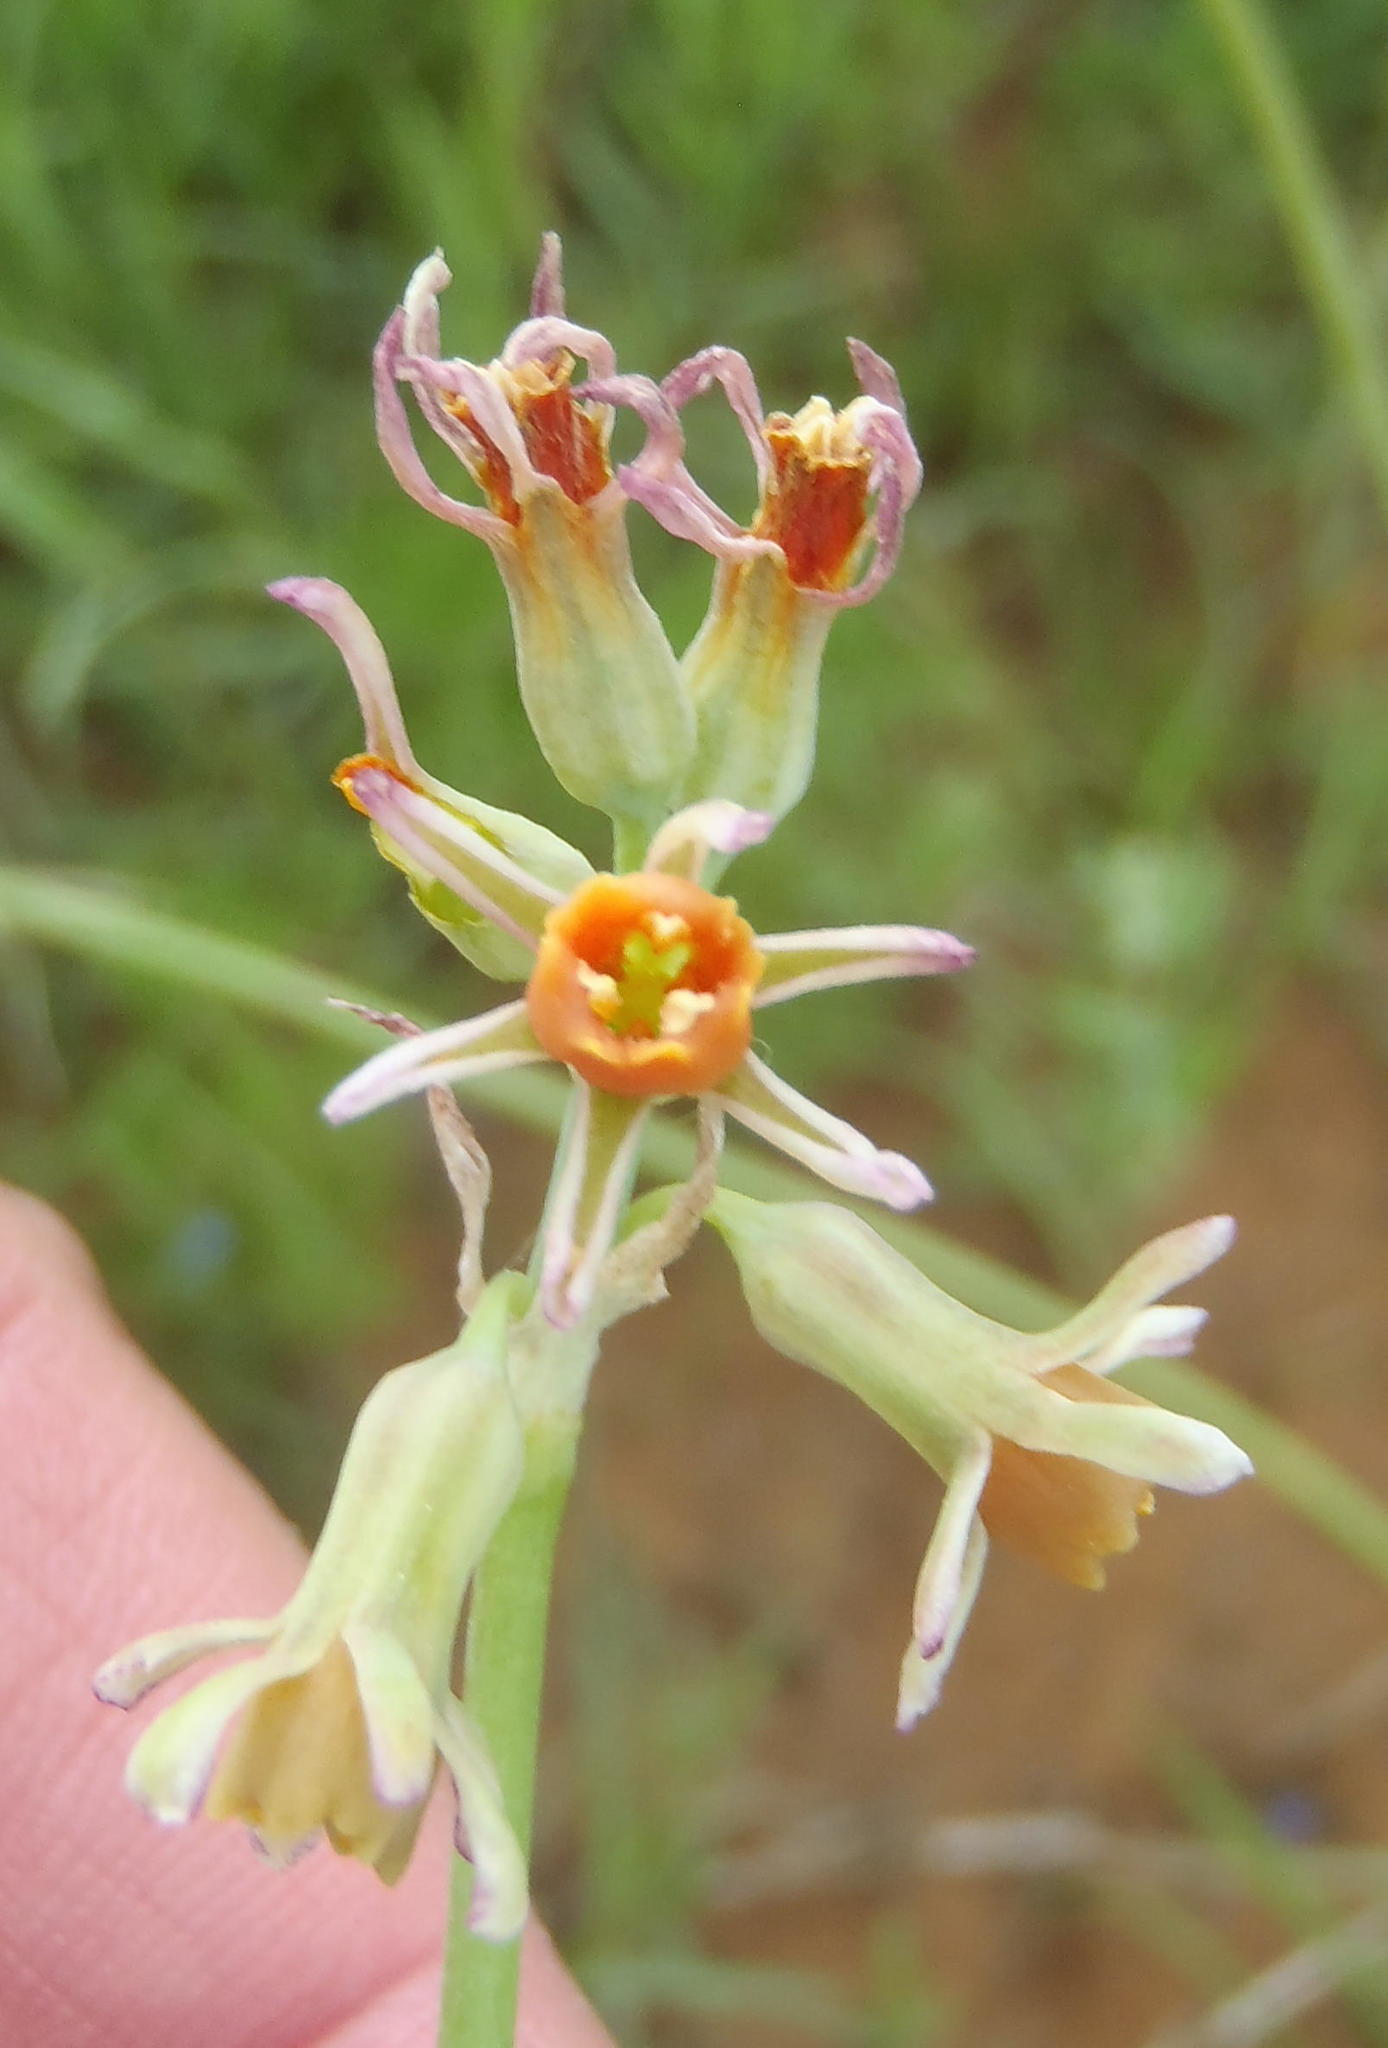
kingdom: Plantae
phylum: Tracheophyta
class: Liliopsida
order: Asparagales
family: Amaryllidaceae
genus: Tulbaghia
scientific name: Tulbaghia leucantha
